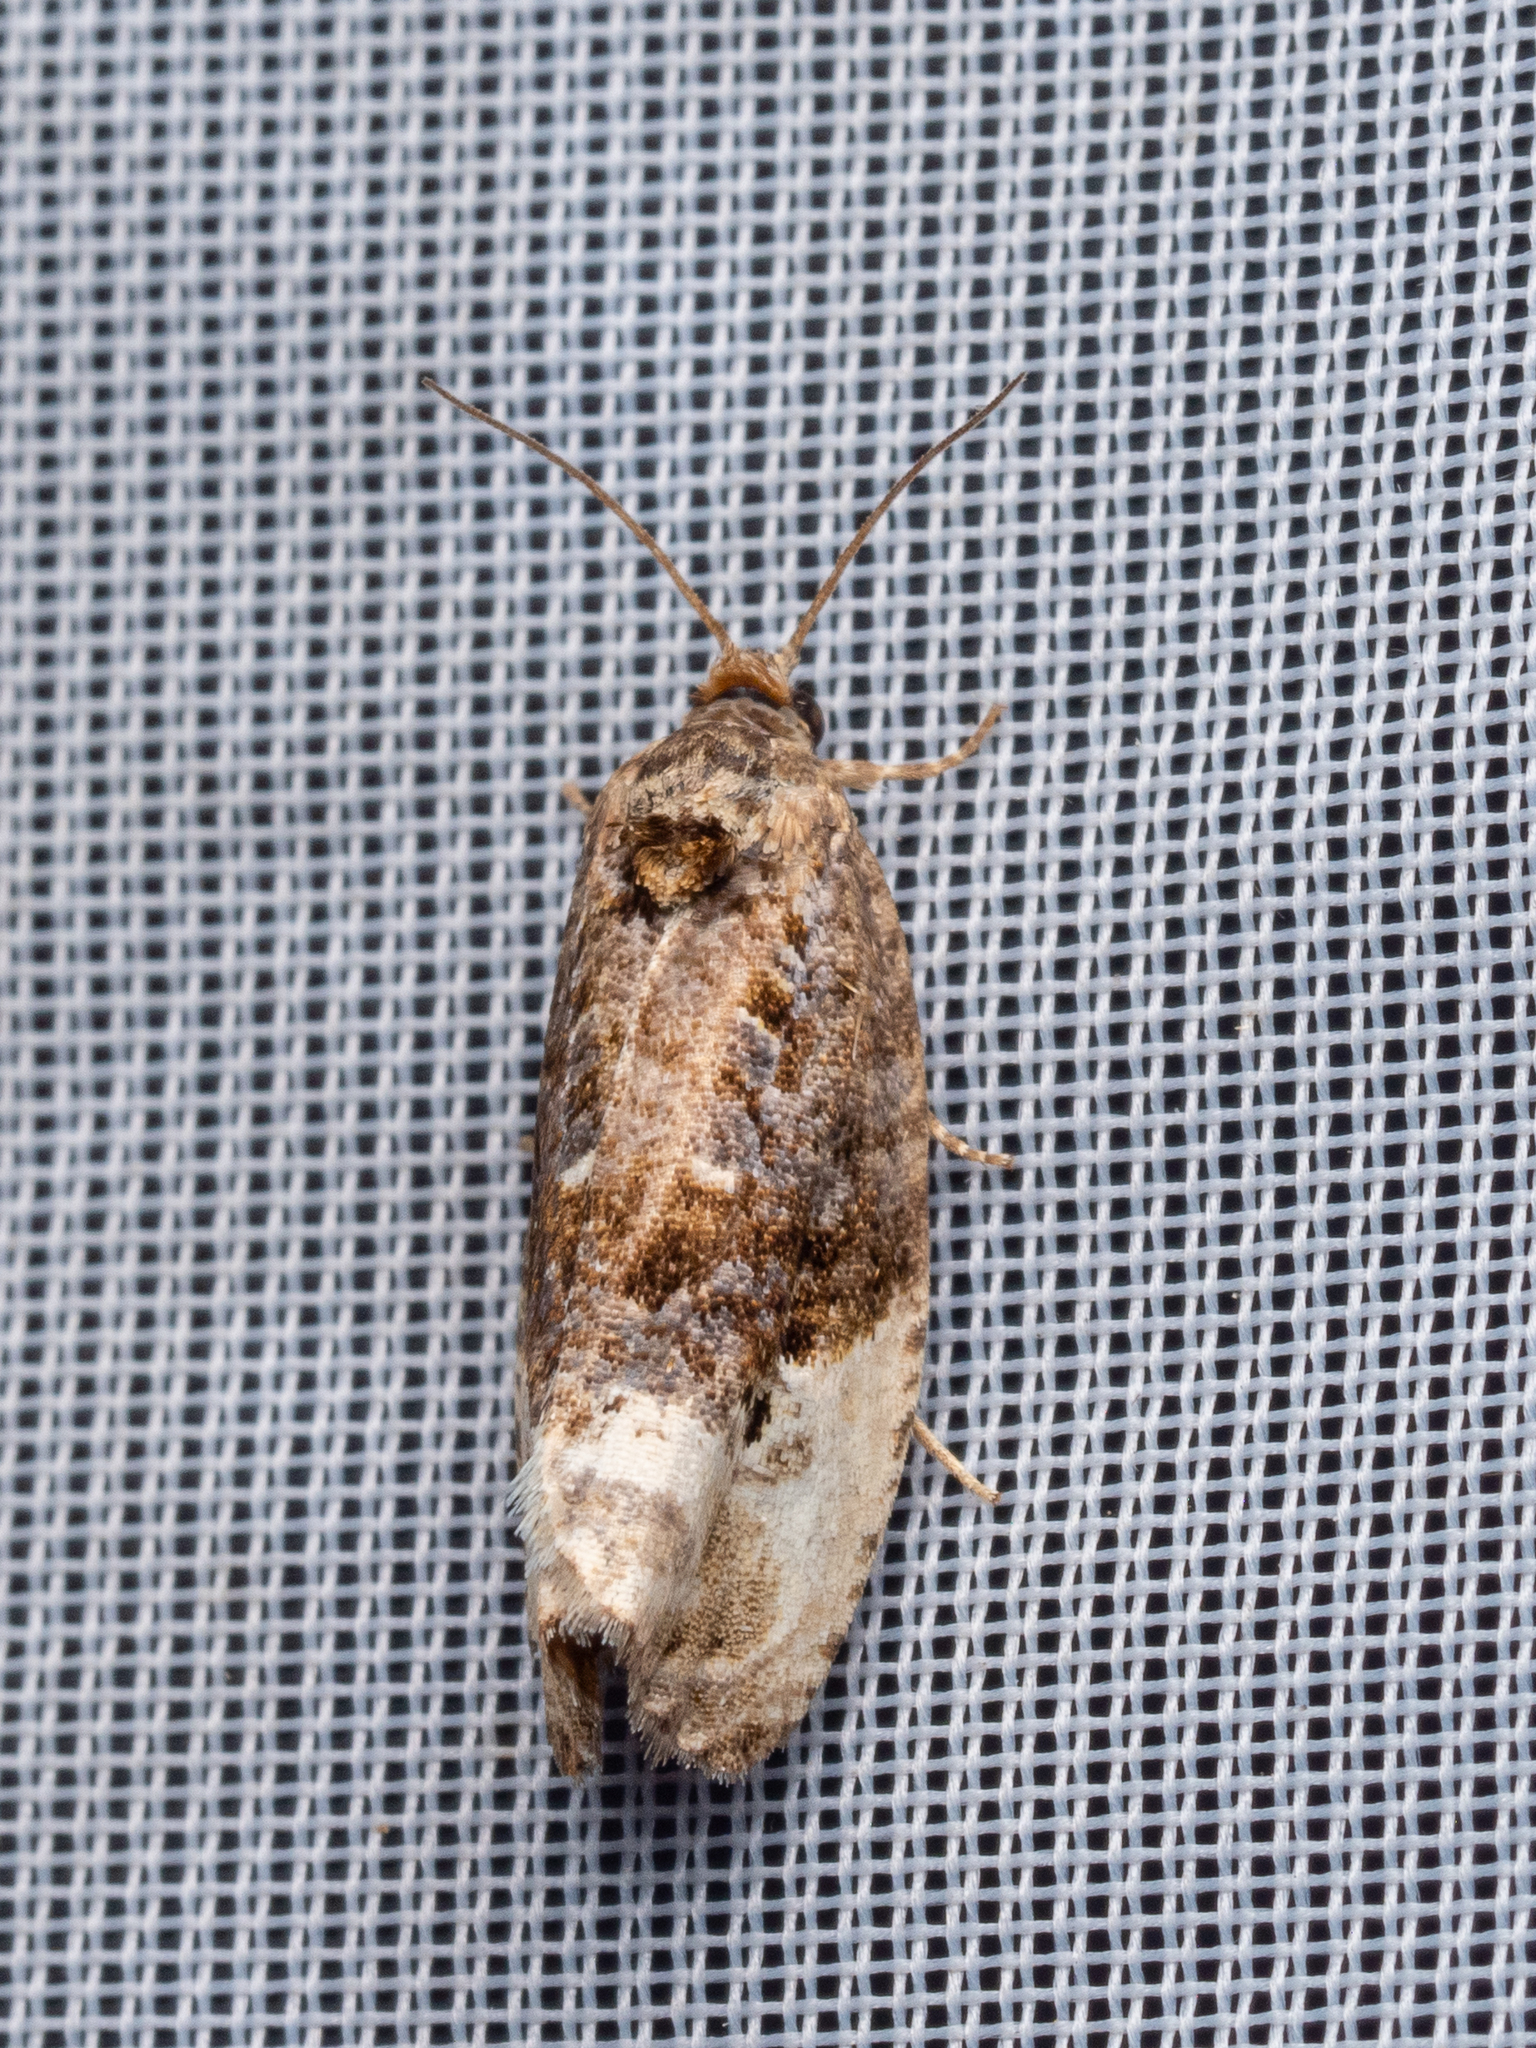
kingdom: Animalia
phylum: Arthropoda
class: Insecta
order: Lepidoptera
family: Tortricidae
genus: Hedya
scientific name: Hedya nubiferana
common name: Marbled orchard tortrix
